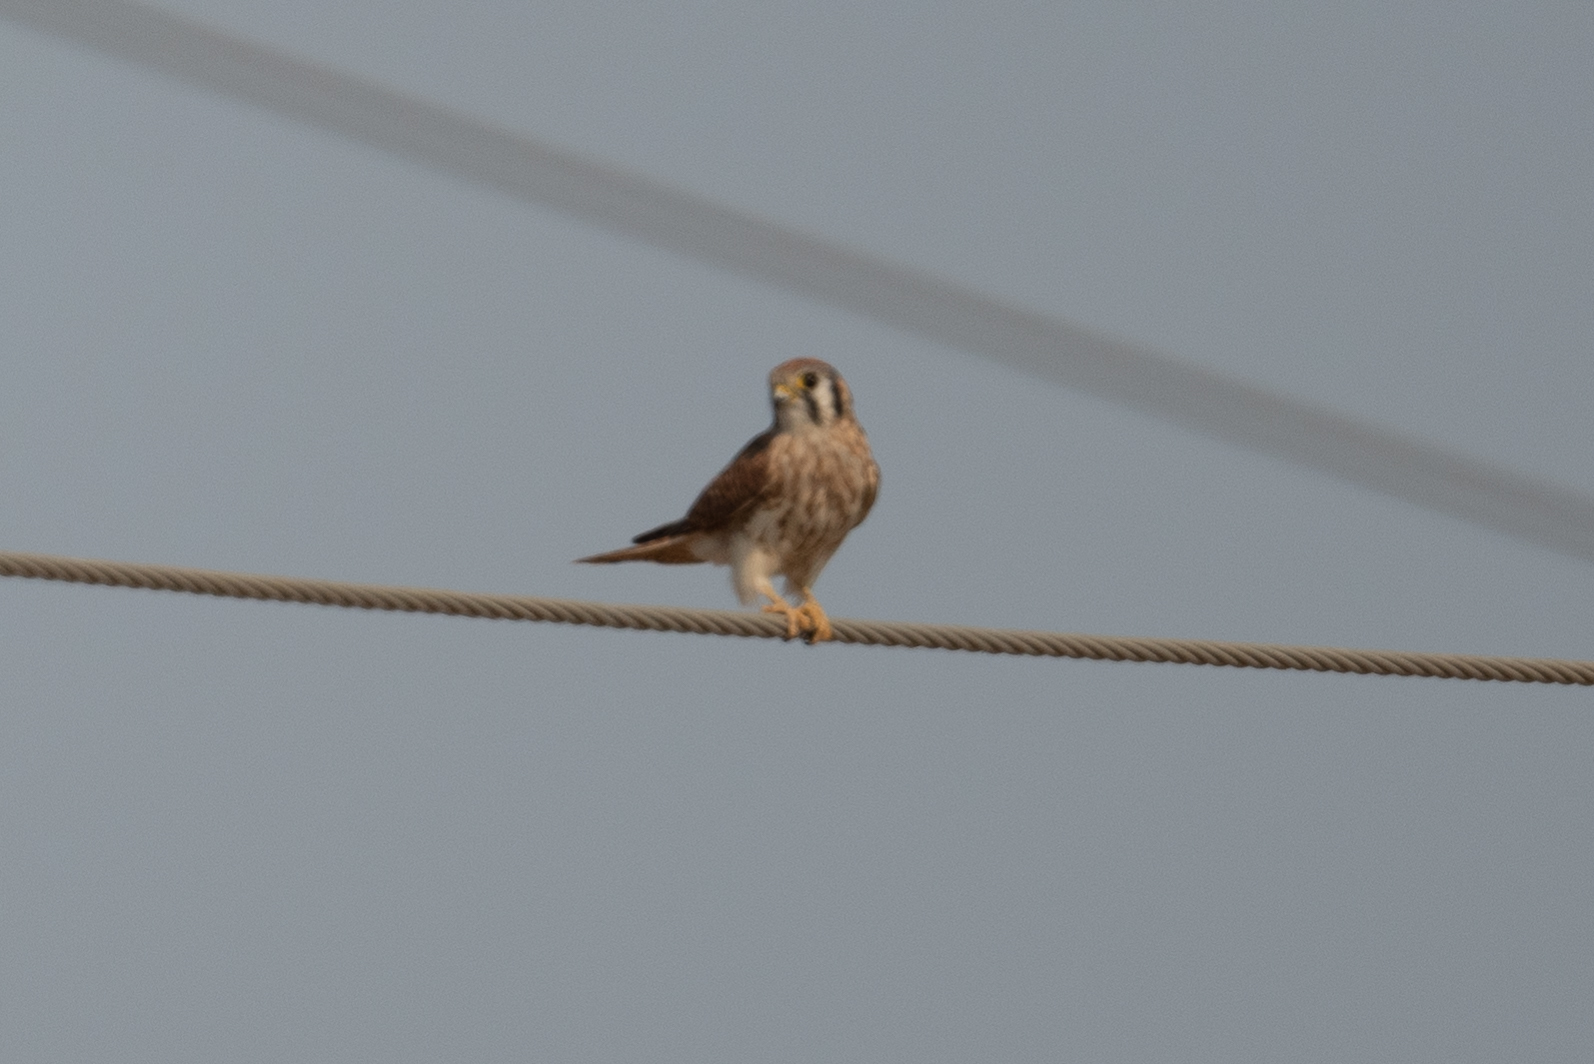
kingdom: Animalia
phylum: Chordata
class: Aves
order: Falconiformes
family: Falconidae
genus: Falco
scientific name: Falco sparverius
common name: American kestrel
